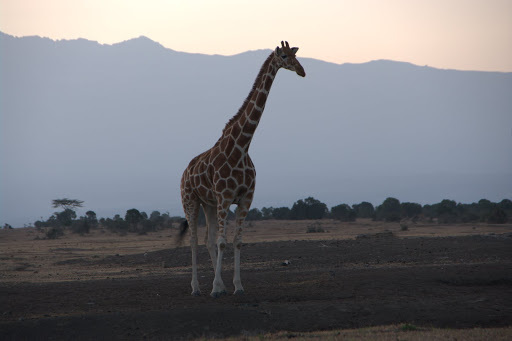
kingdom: Animalia
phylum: Chordata
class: Mammalia
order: Artiodactyla
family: Giraffidae
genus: Giraffa
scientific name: Giraffa reticulata
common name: Reticulated giraffe
